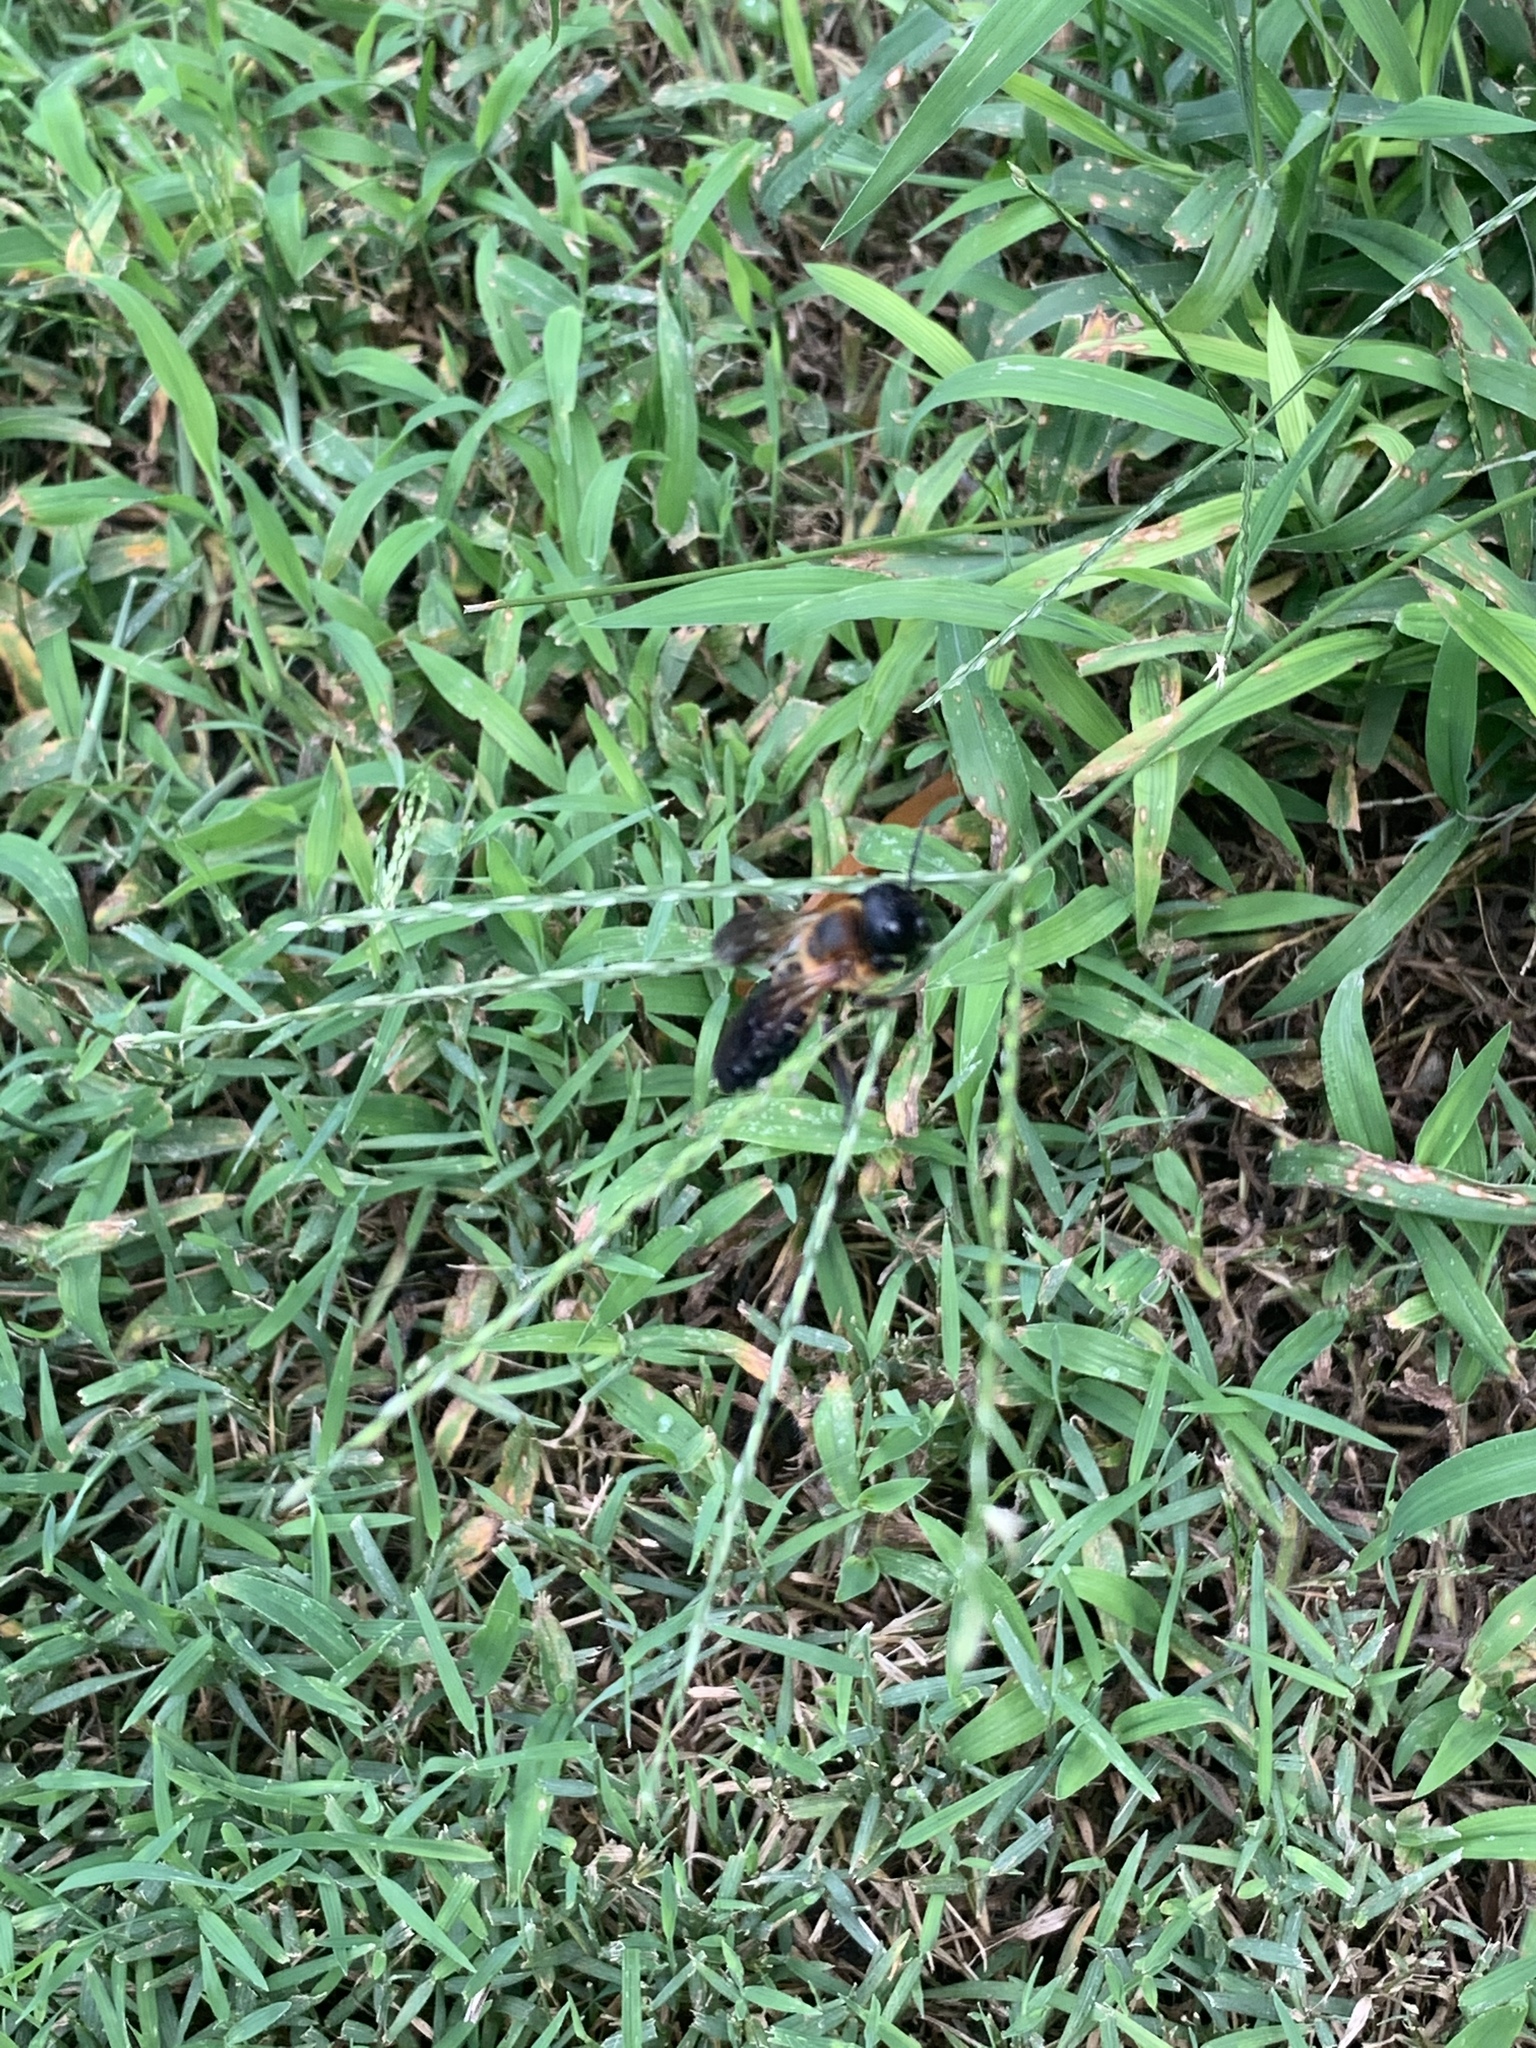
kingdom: Animalia
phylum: Arthropoda
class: Insecta
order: Hymenoptera
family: Megachilidae
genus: Megachile
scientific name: Megachile sculpturalis
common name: Sculptured resin bee
